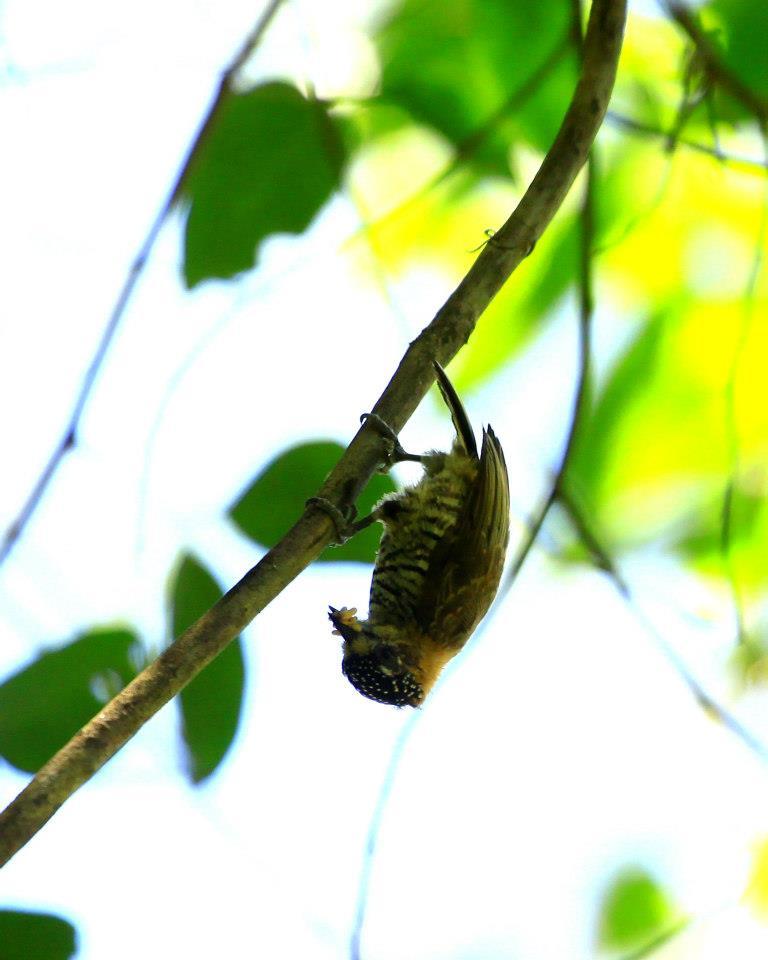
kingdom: Animalia
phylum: Chordata
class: Aves
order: Piciformes
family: Picidae
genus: Picumnus
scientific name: Picumnus temminckii
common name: Ochre-collared piculet
